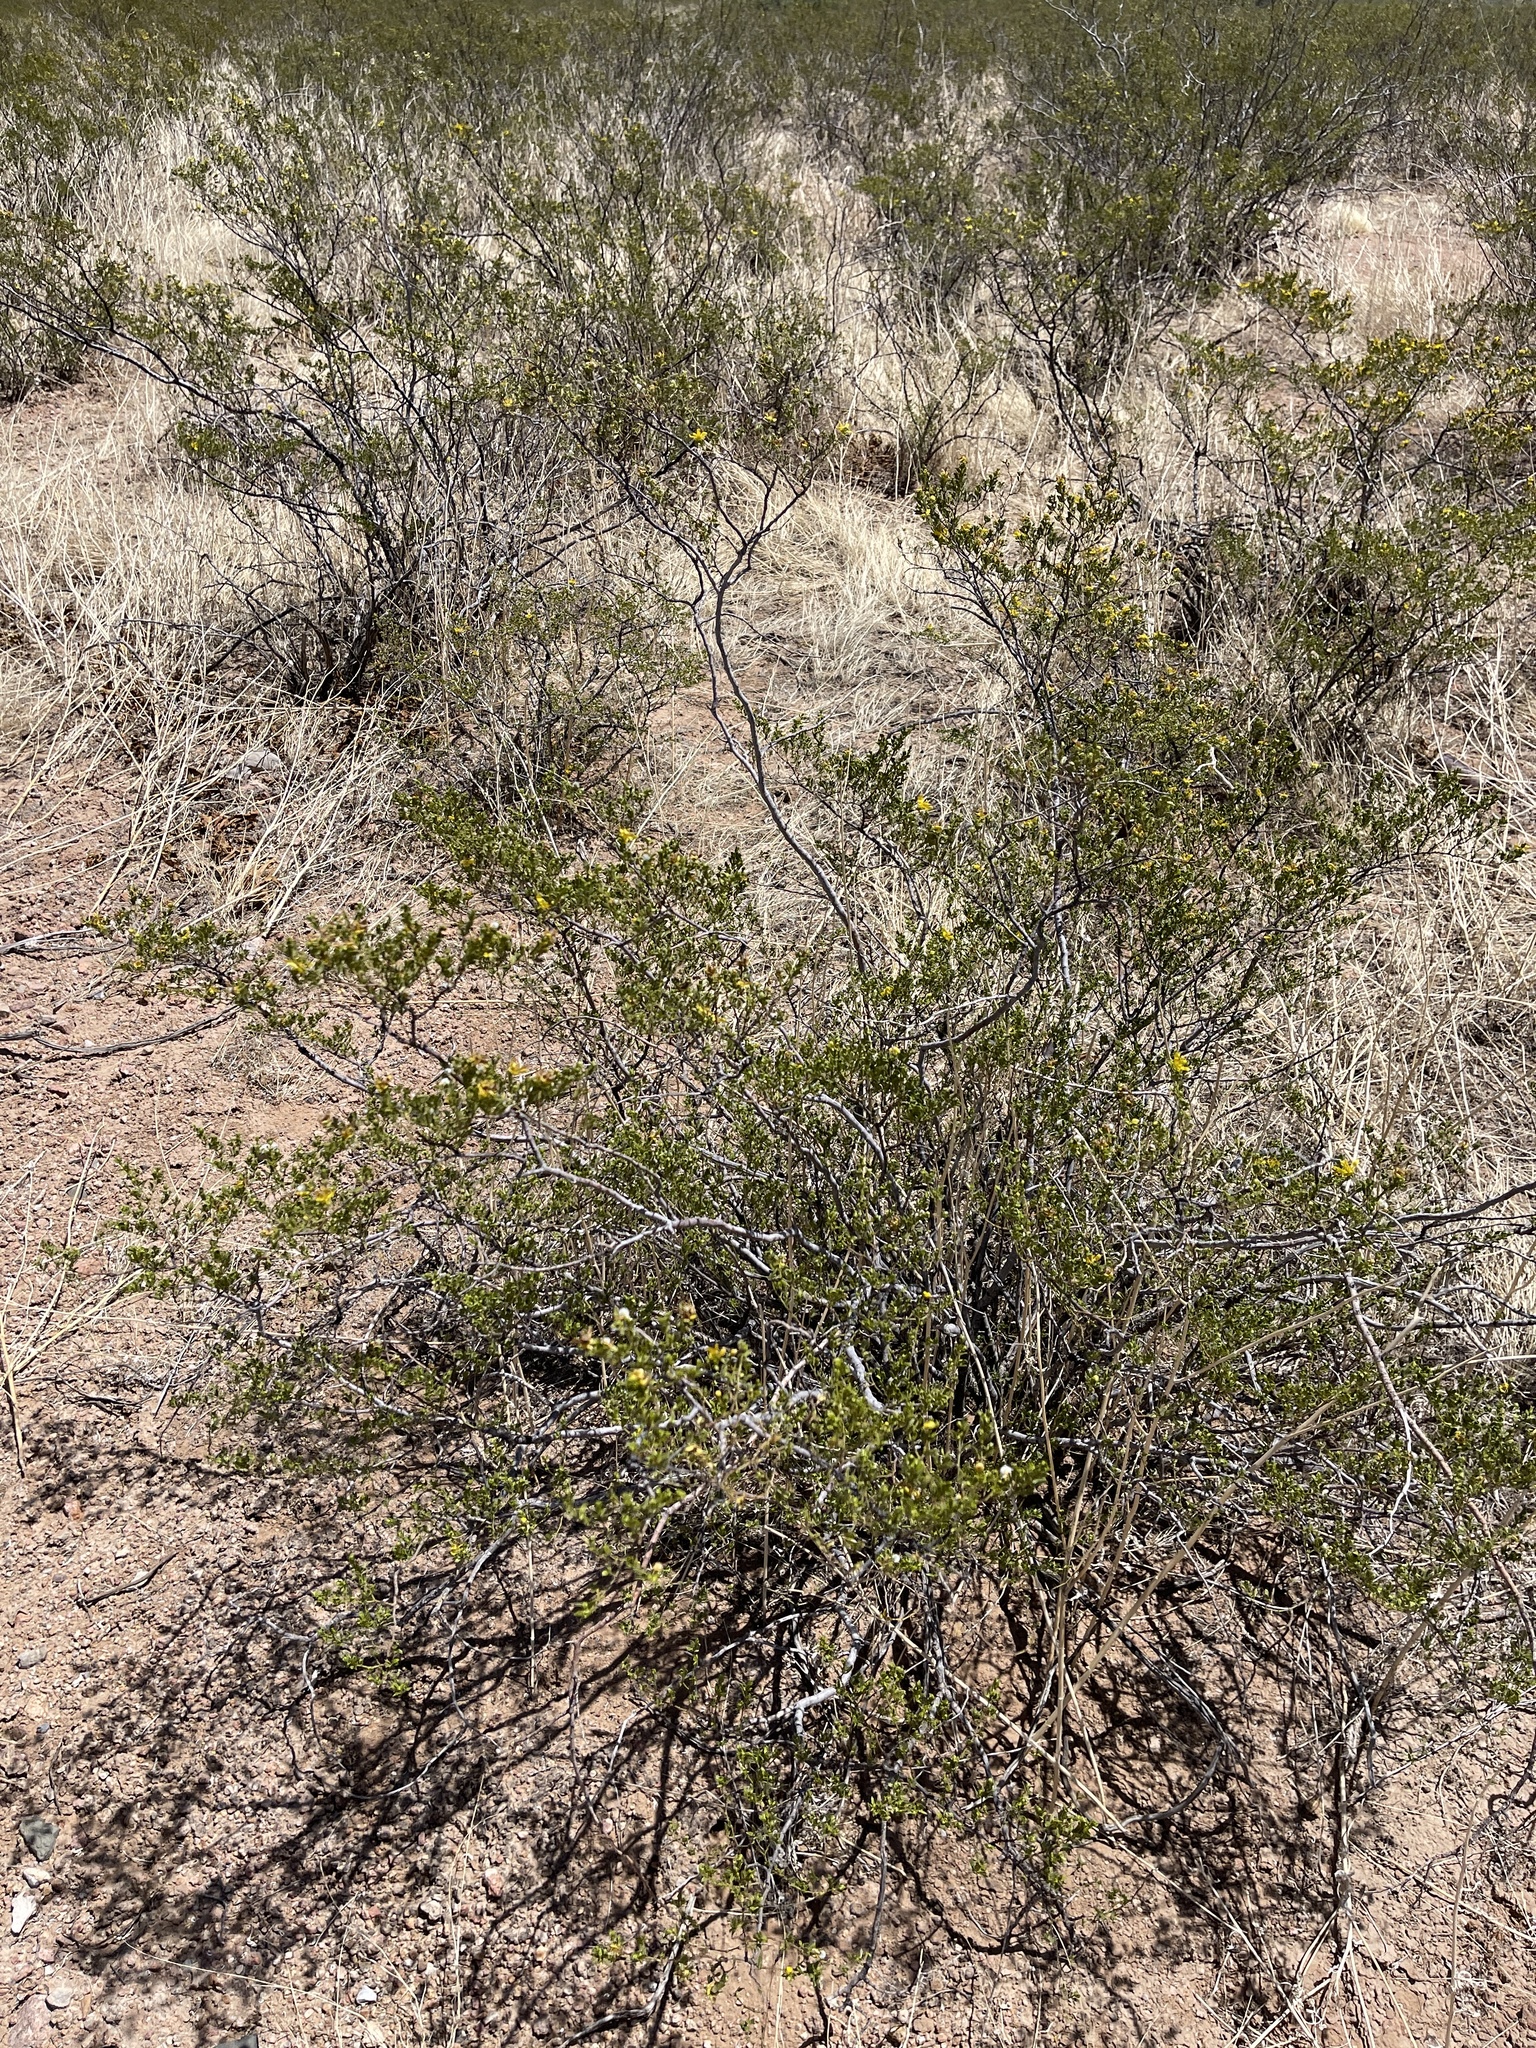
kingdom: Plantae
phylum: Tracheophyta
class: Magnoliopsida
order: Zygophyllales
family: Zygophyllaceae
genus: Larrea
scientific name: Larrea tridentata
